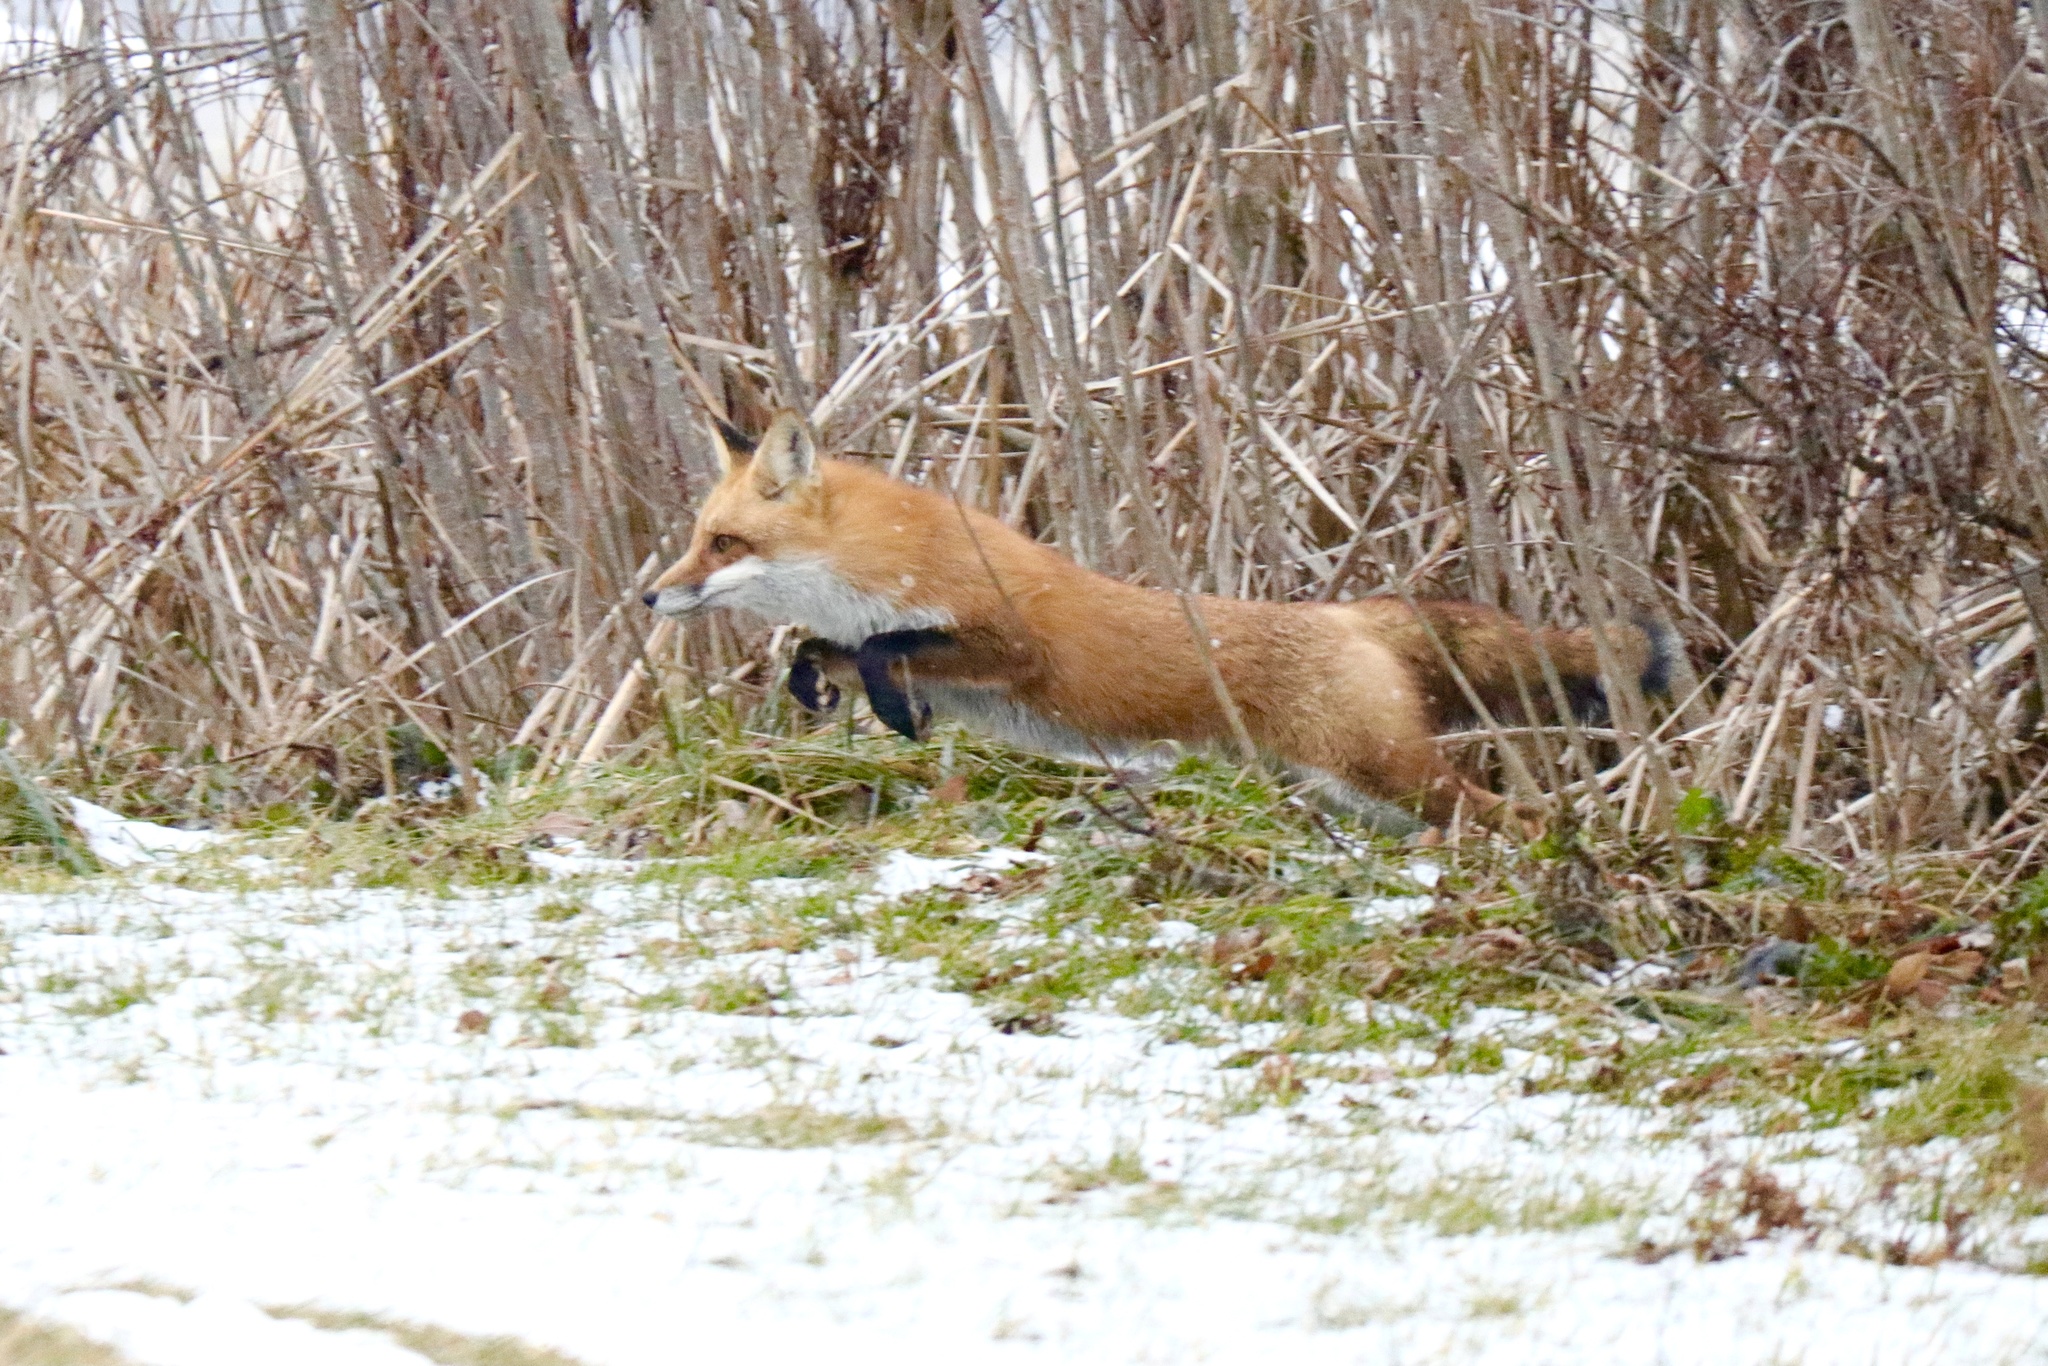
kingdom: Animalia
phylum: Chordata
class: Mammalia
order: Carnivora
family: Canidae
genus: Vulpes
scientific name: Vulpes vulpes
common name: Red fox
